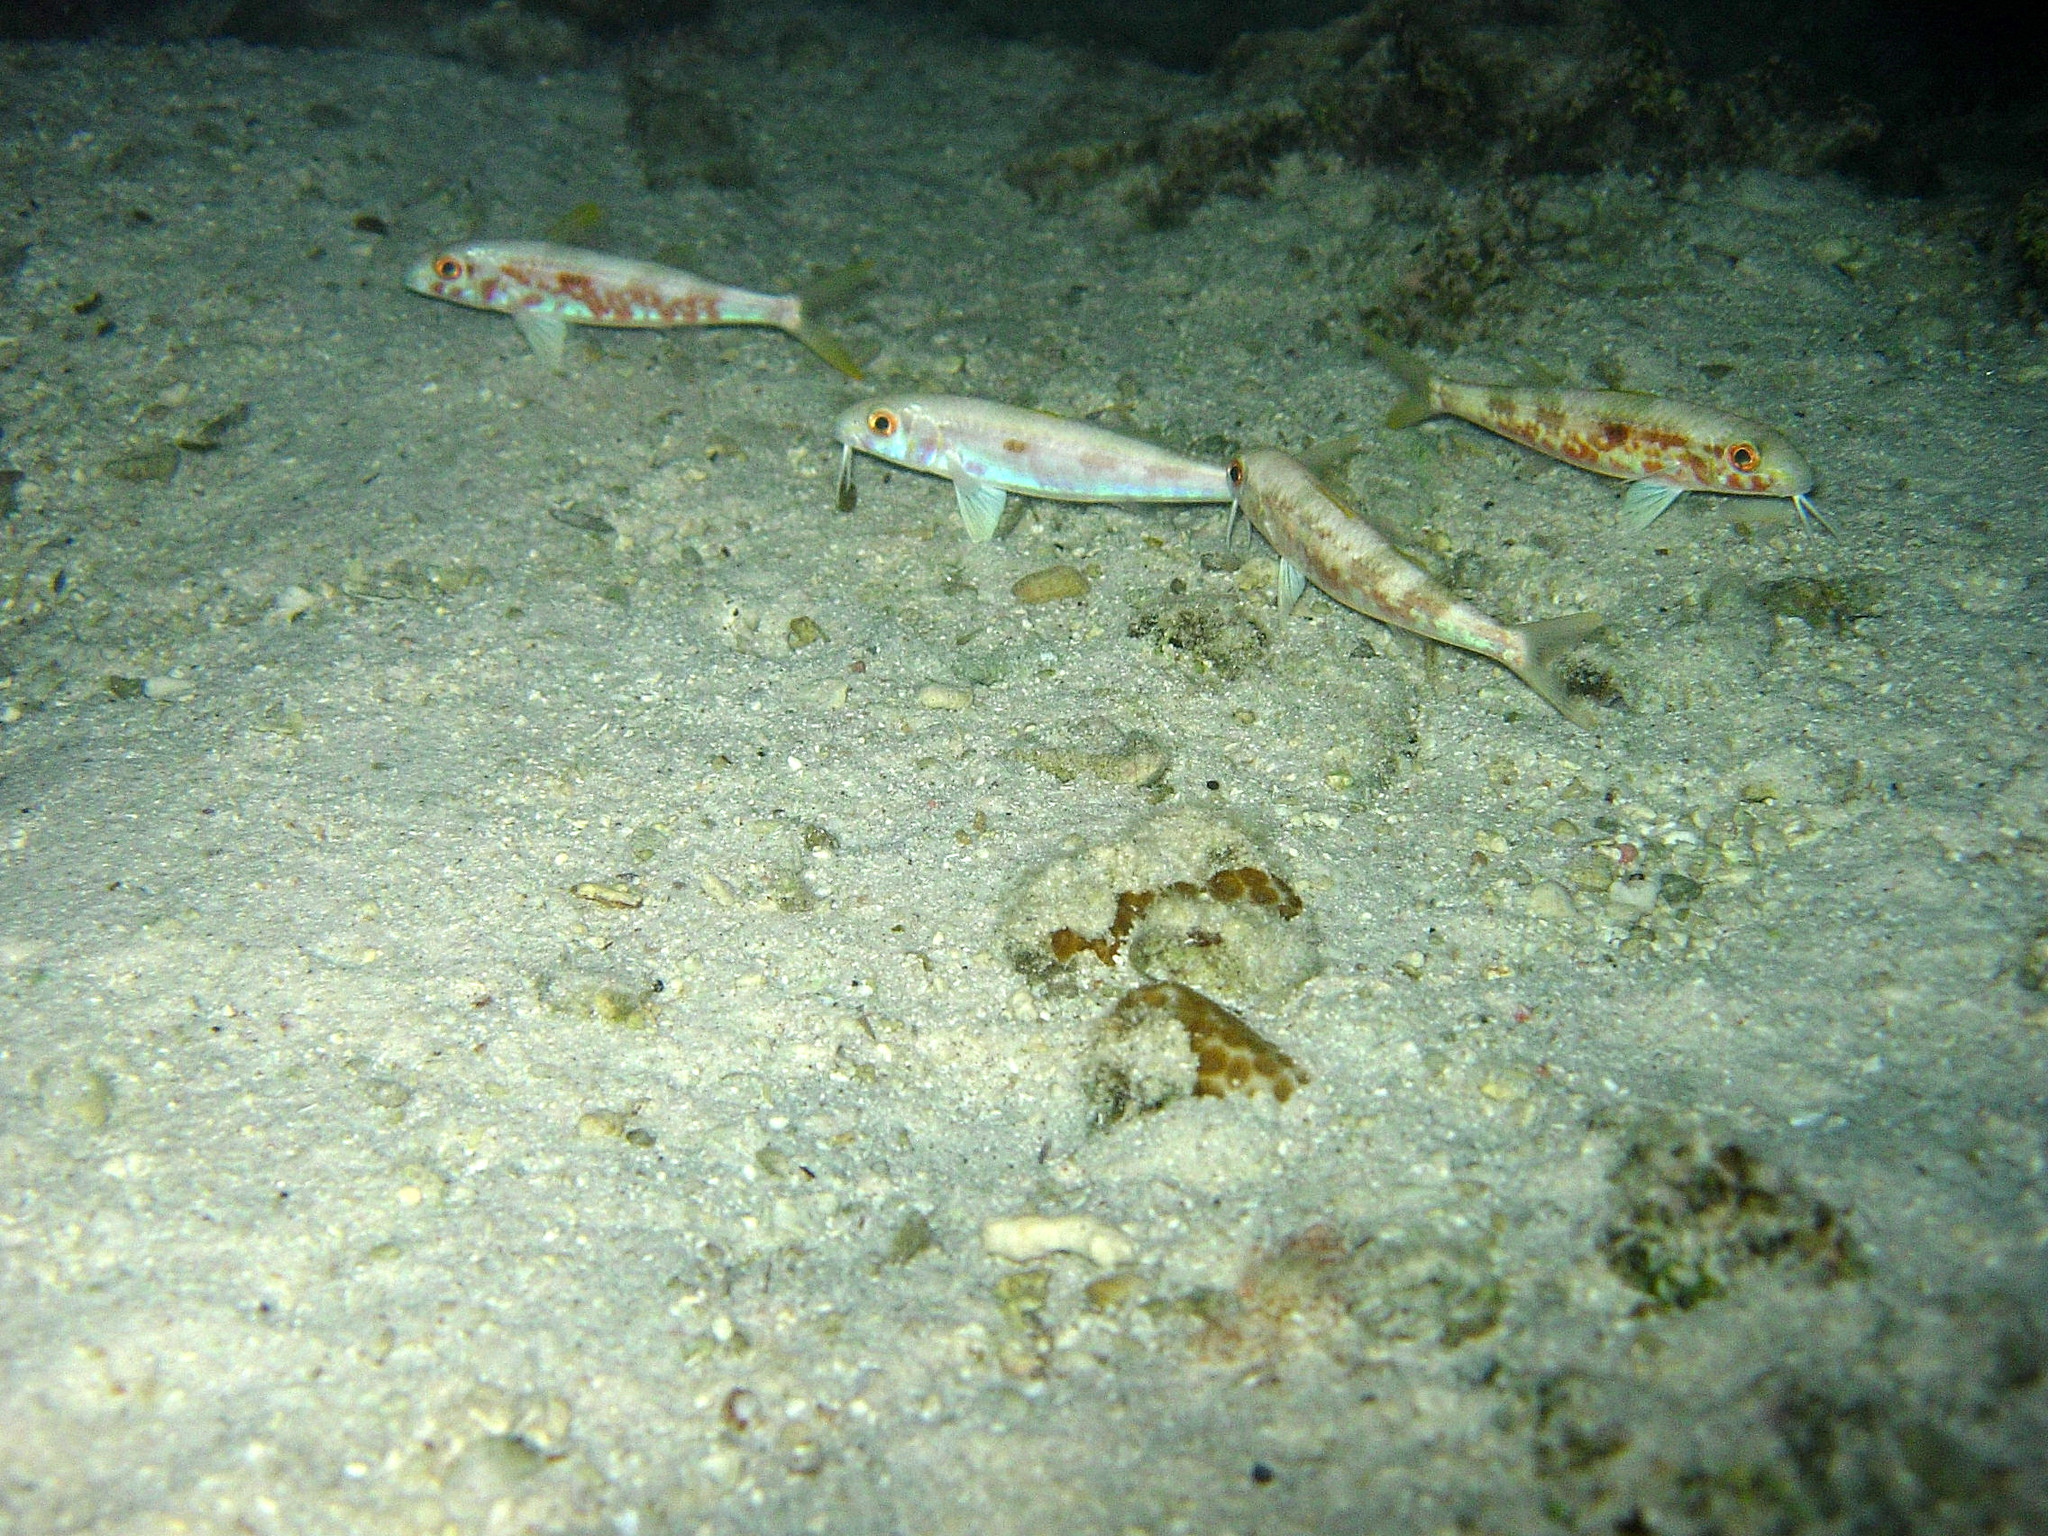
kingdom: Animalia
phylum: Chordata
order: Perciformes
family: Mullidae
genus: Mulloidichthys
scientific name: Mulloidichthys flavolineatus
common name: Yellowstripe goatfish
